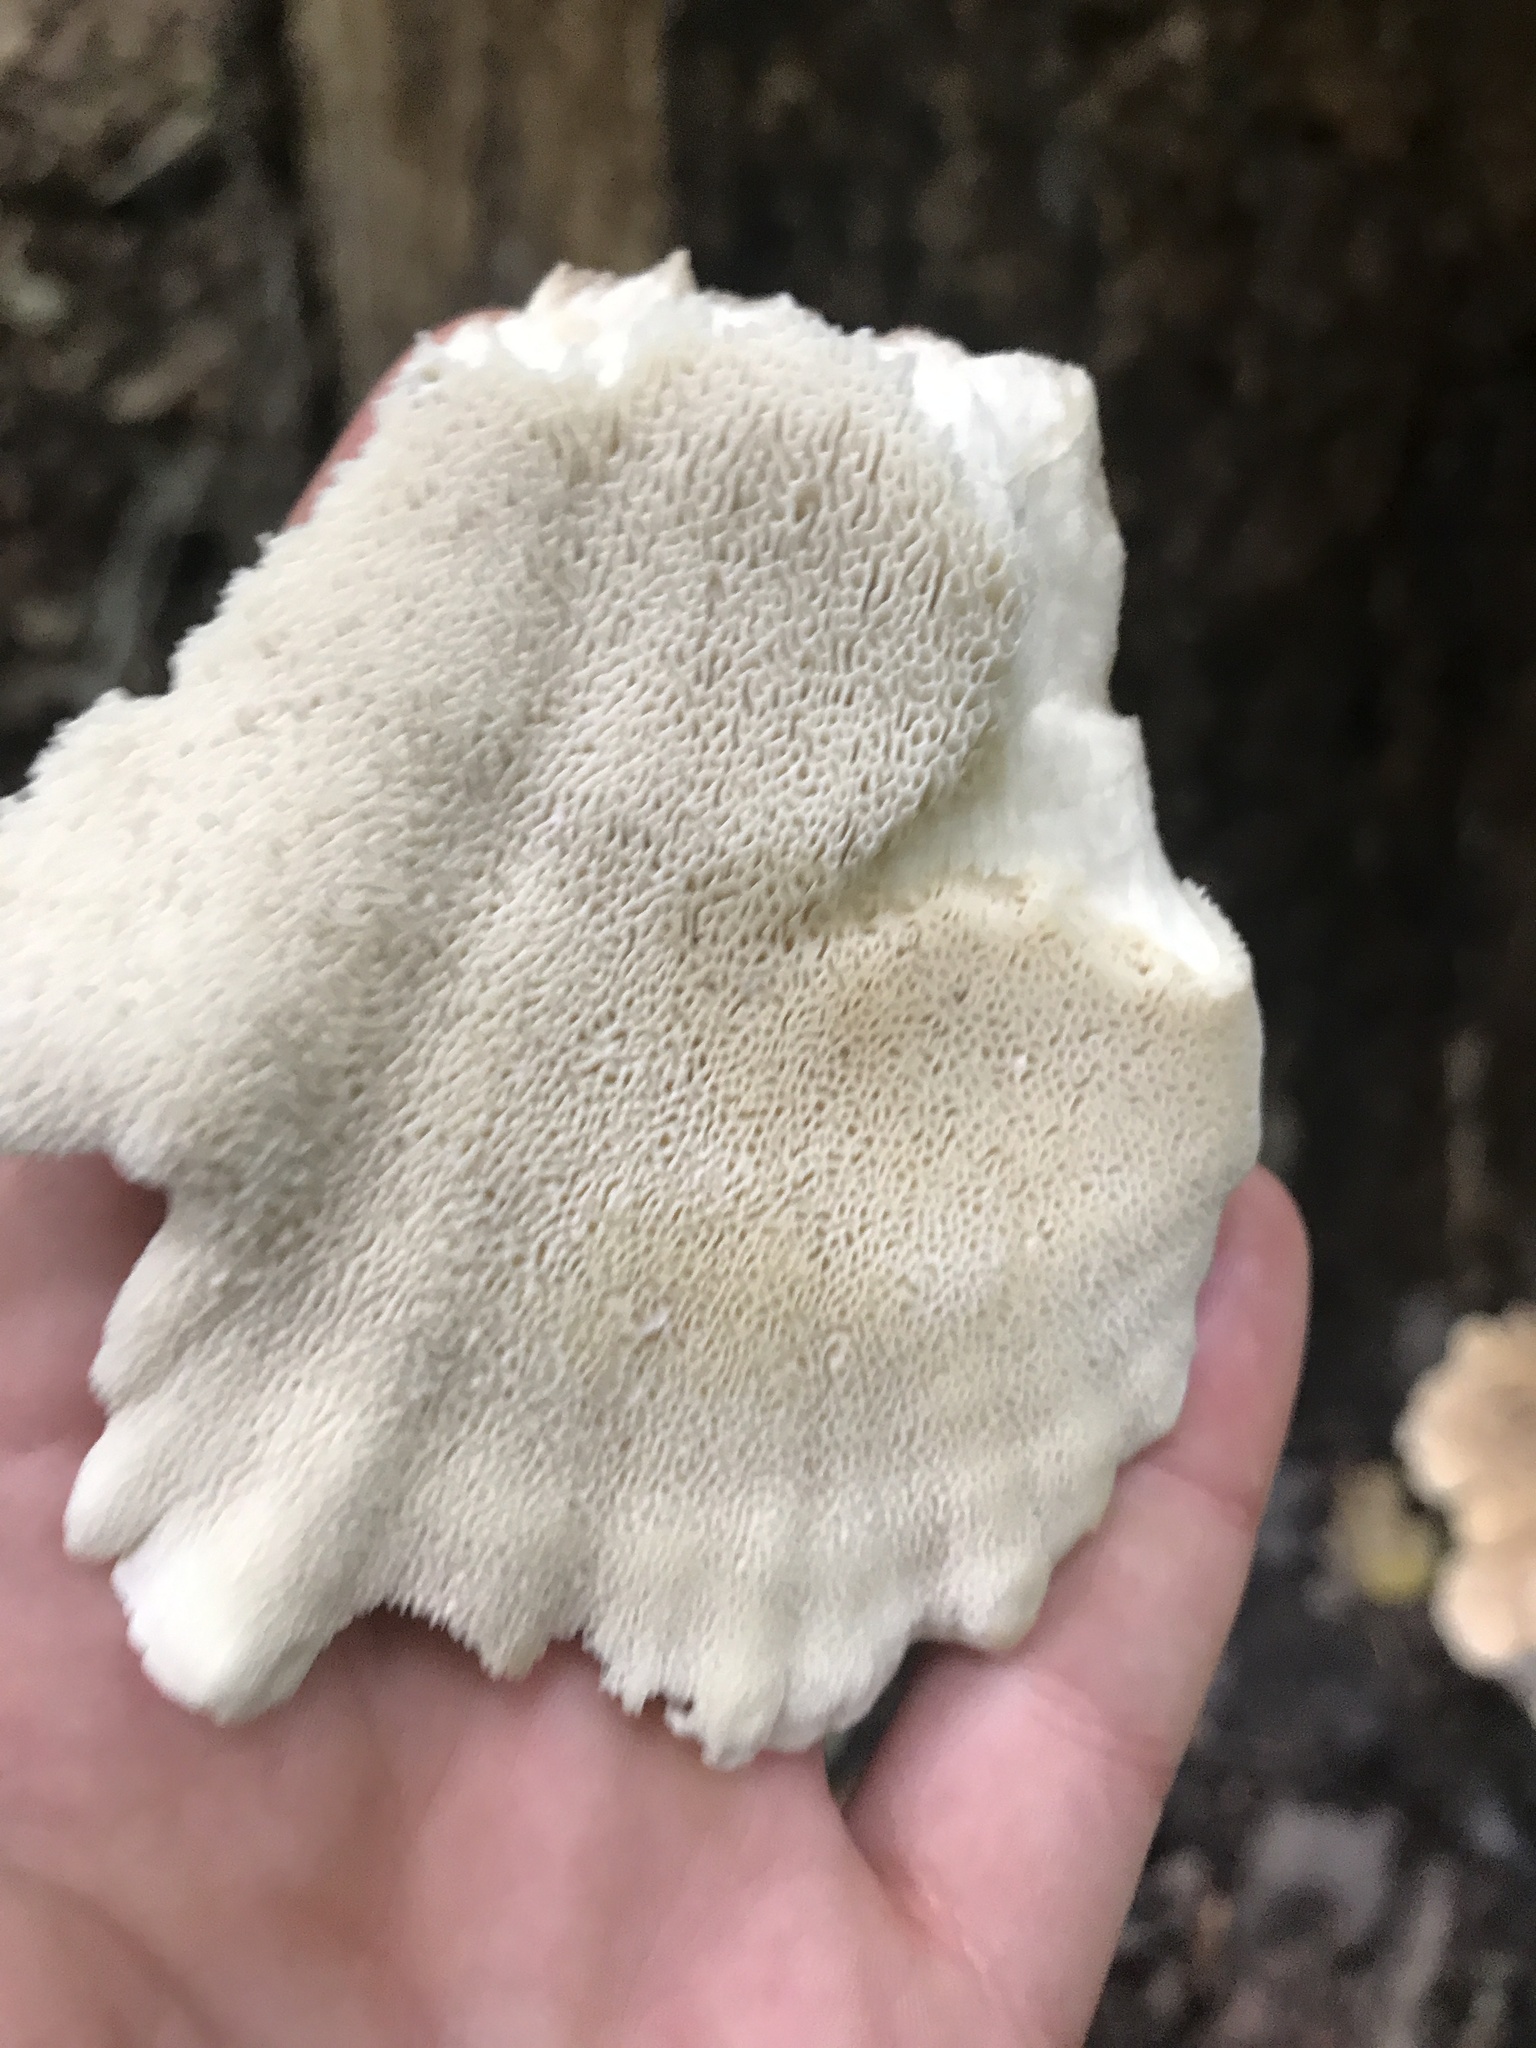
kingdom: Fungi
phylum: Basidiomycota
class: Agaricomycetes
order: Russulales
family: Bondarzewiaceae
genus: Bondarzewia
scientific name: Bondarzewia berkeleyi
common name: Berkeley's polypore
